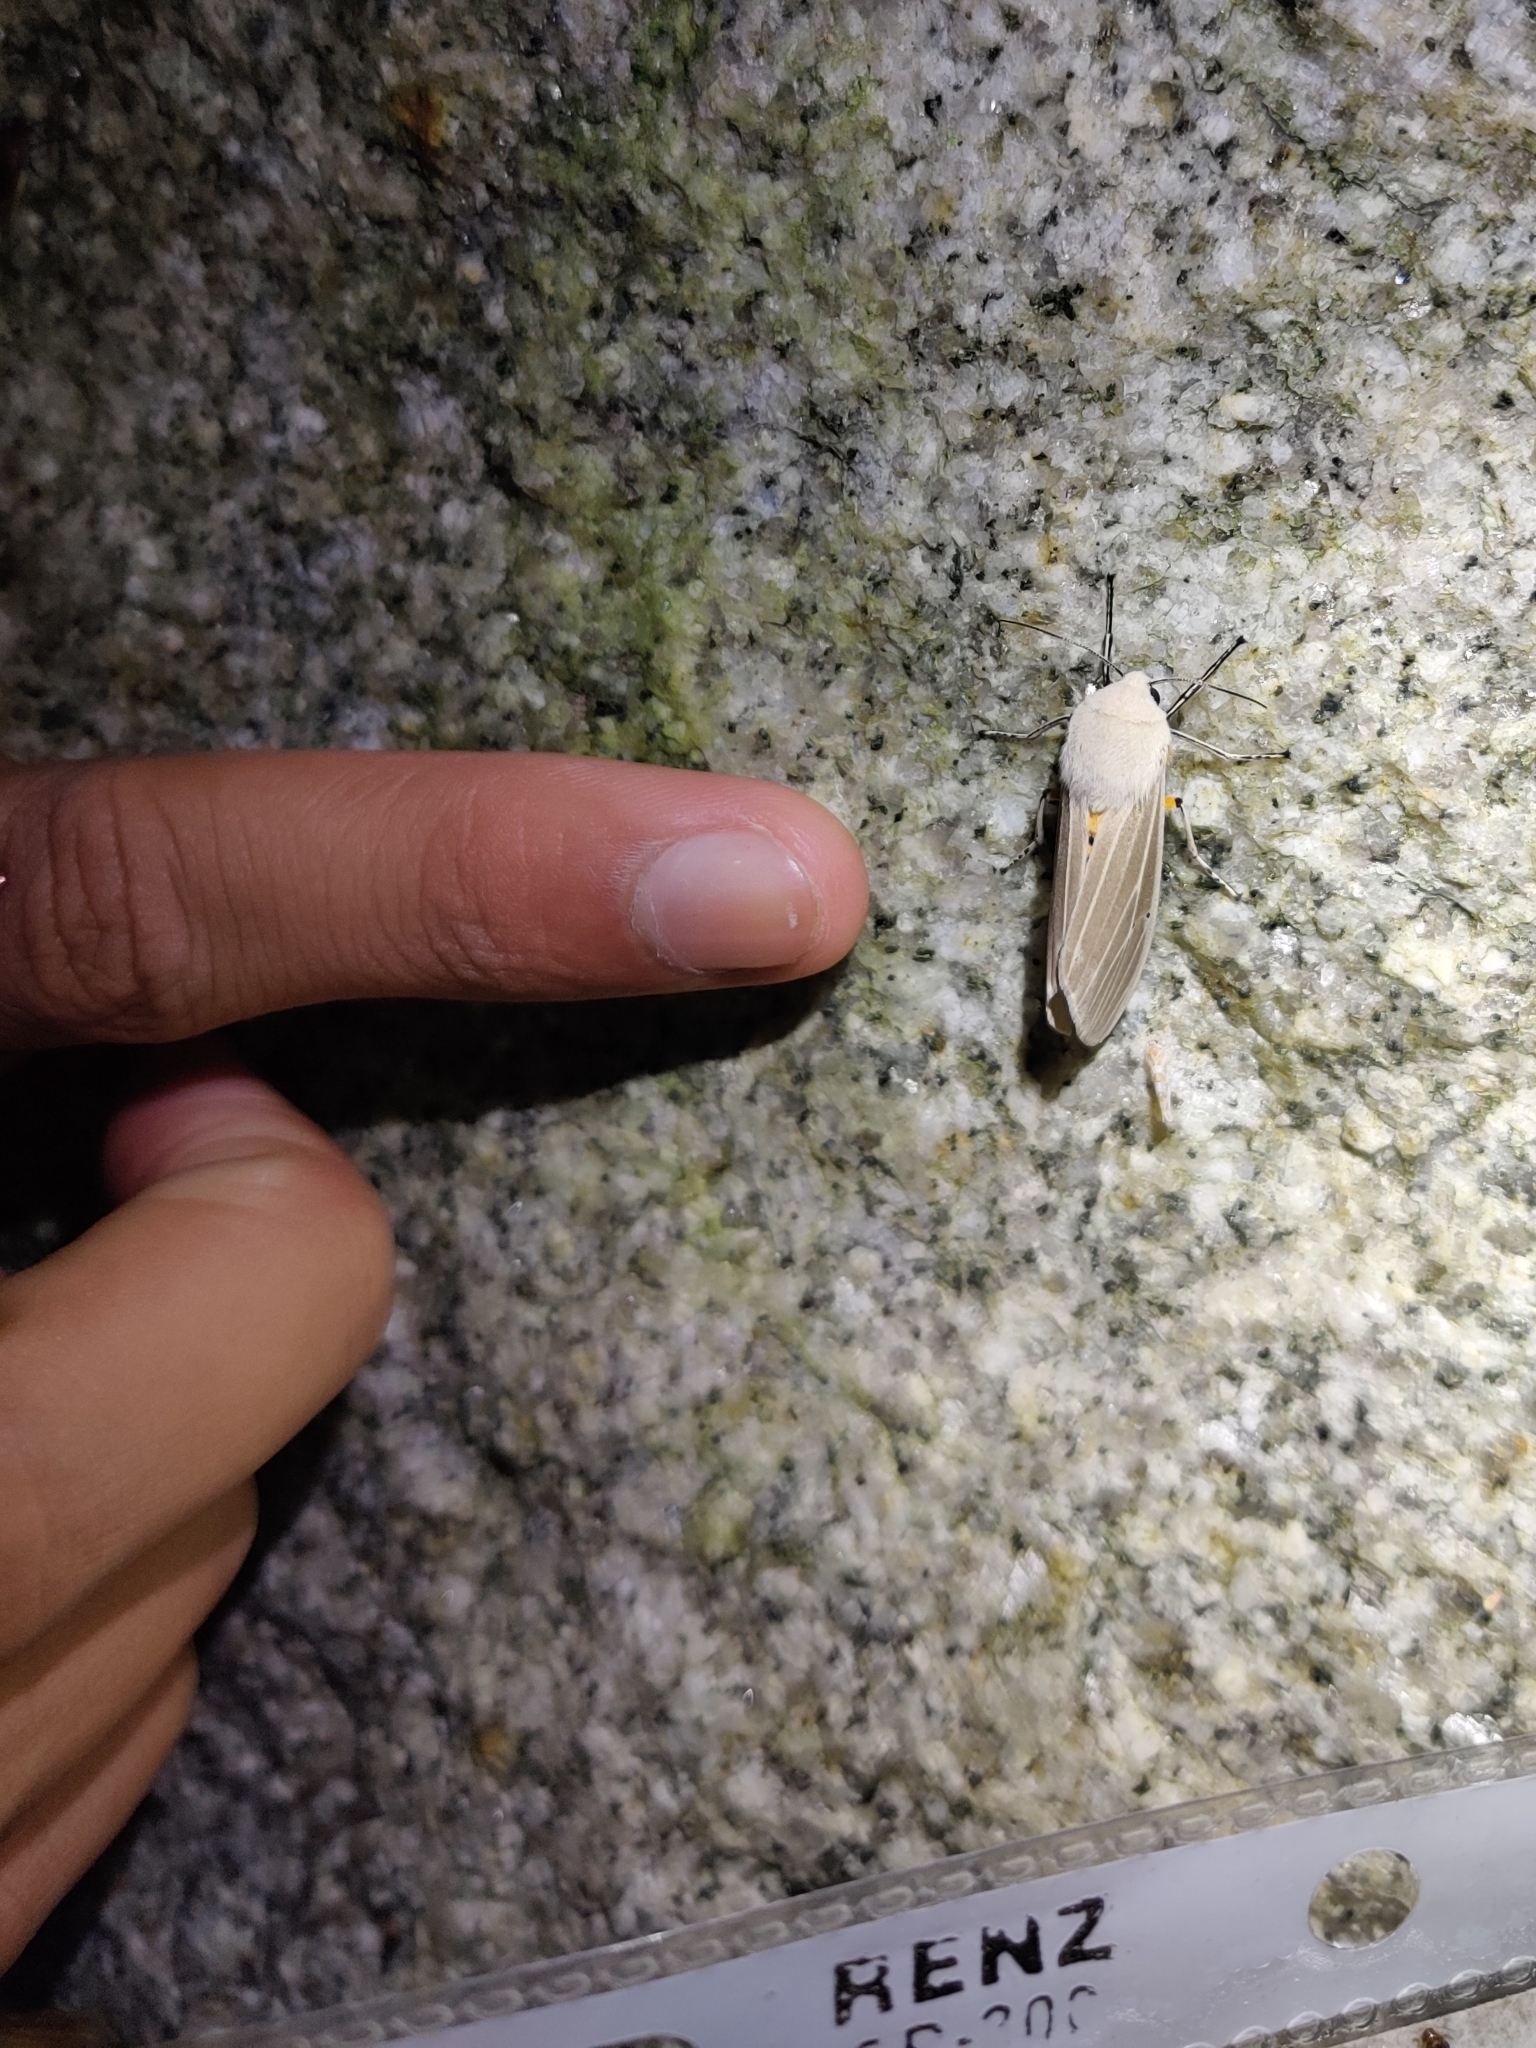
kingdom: Animalia
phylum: Arthropoda
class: Insecta
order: Lepidoptera
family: Erebidae
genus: Creatonotos
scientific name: Creatonotos transiens
